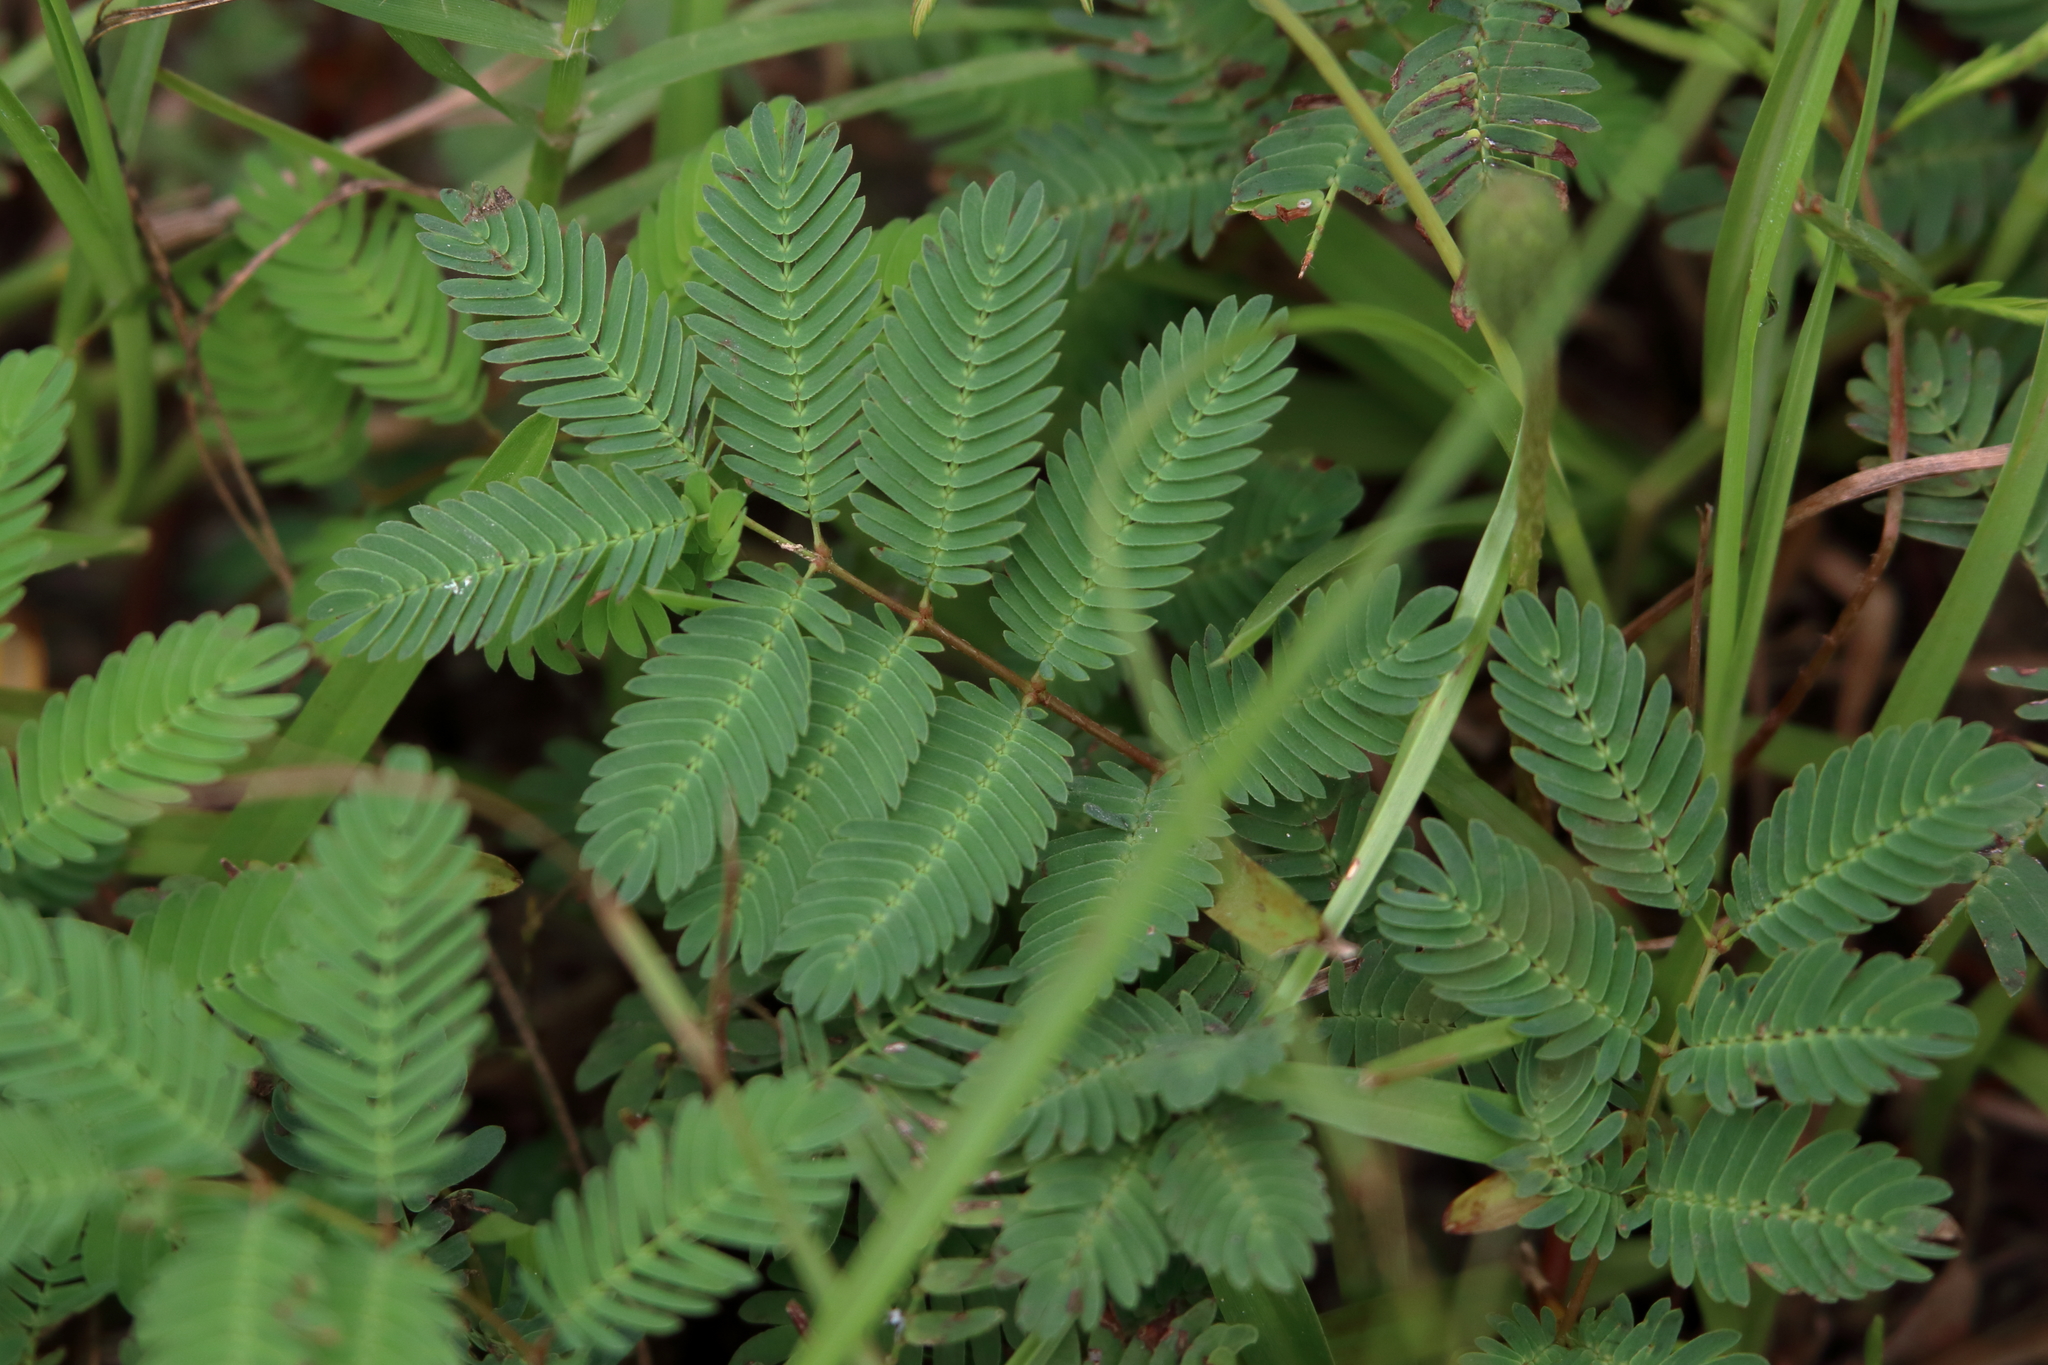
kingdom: Plantae
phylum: Tracheophyta
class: Magnoliopsida
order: Fabales
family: Fabaceae
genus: Mimosa
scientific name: Mimosa strigillosa
